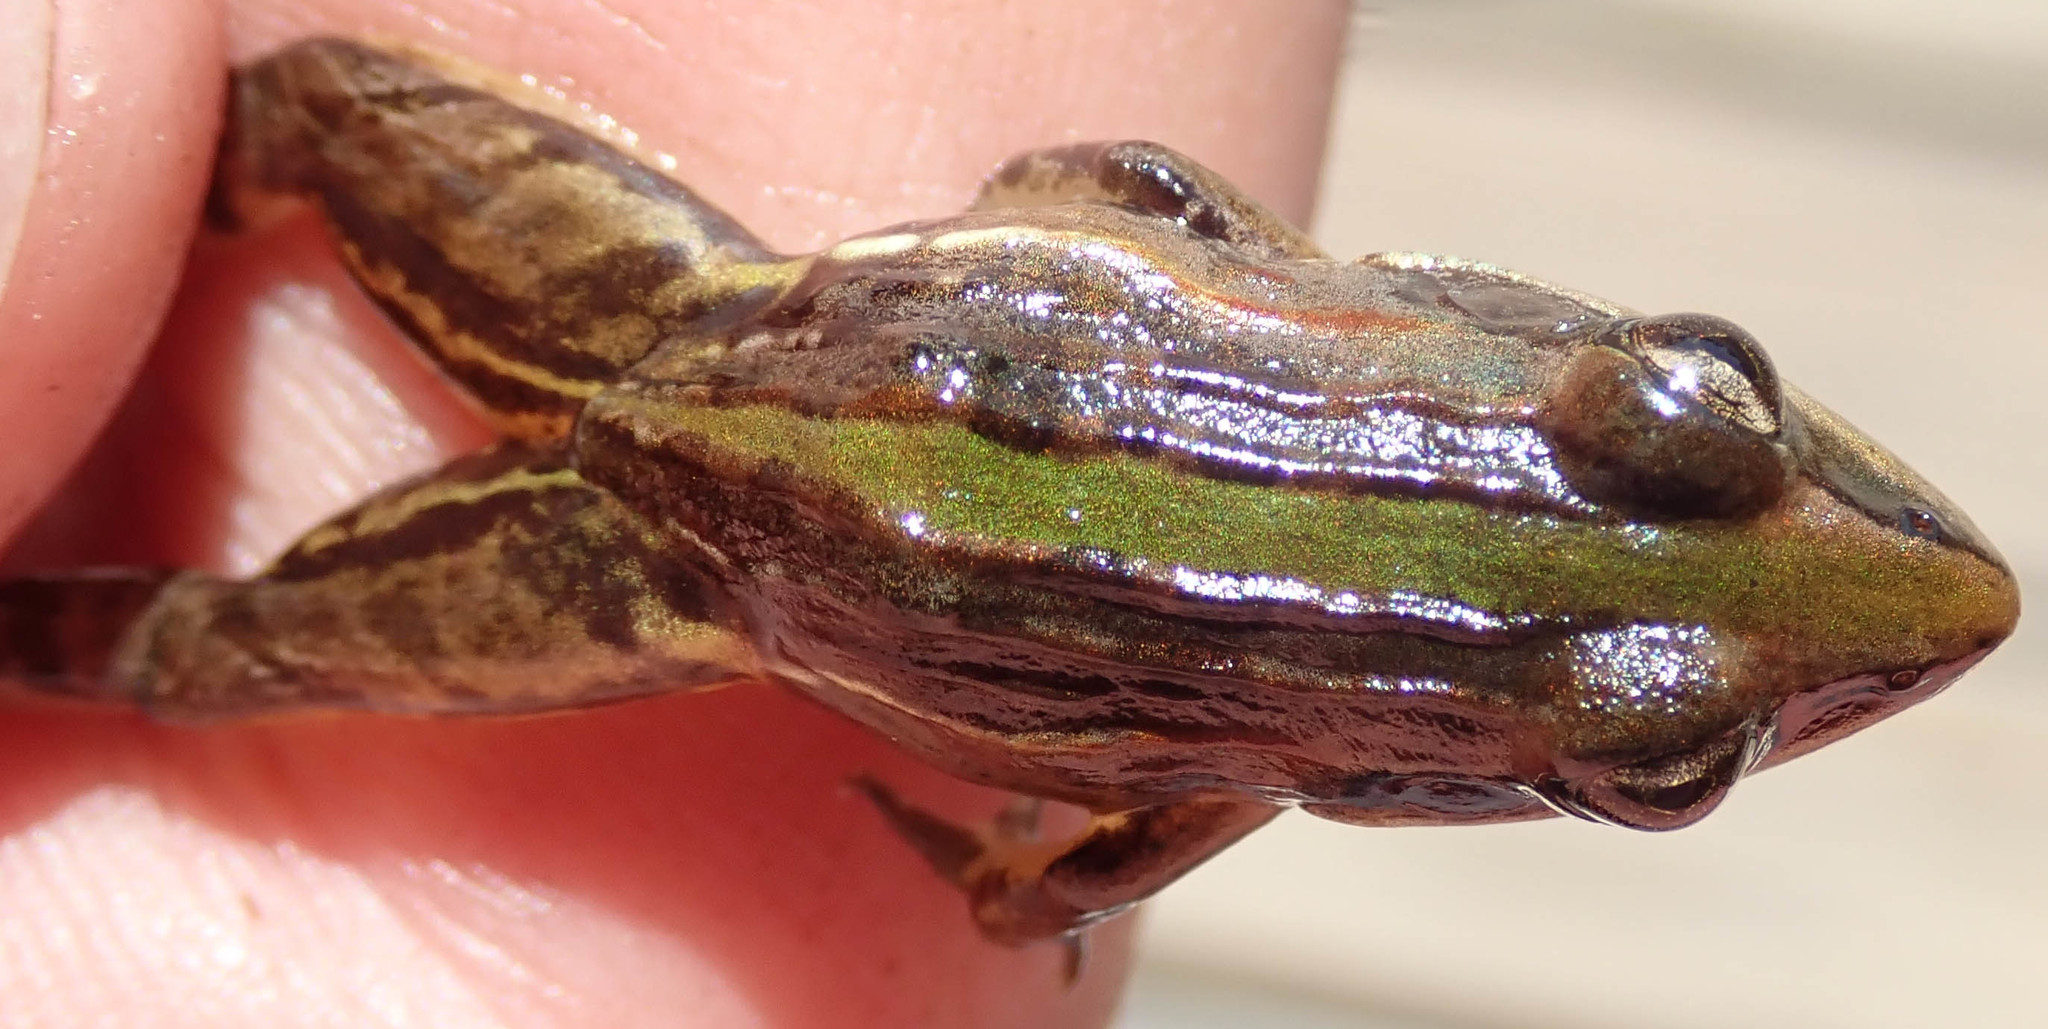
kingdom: Animalia
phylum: Chordata
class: Amphibia
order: Anura
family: Ptychadenidae
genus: Ptychadena
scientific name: Ptychadena taenioscelis
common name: Lukula grassland frog
